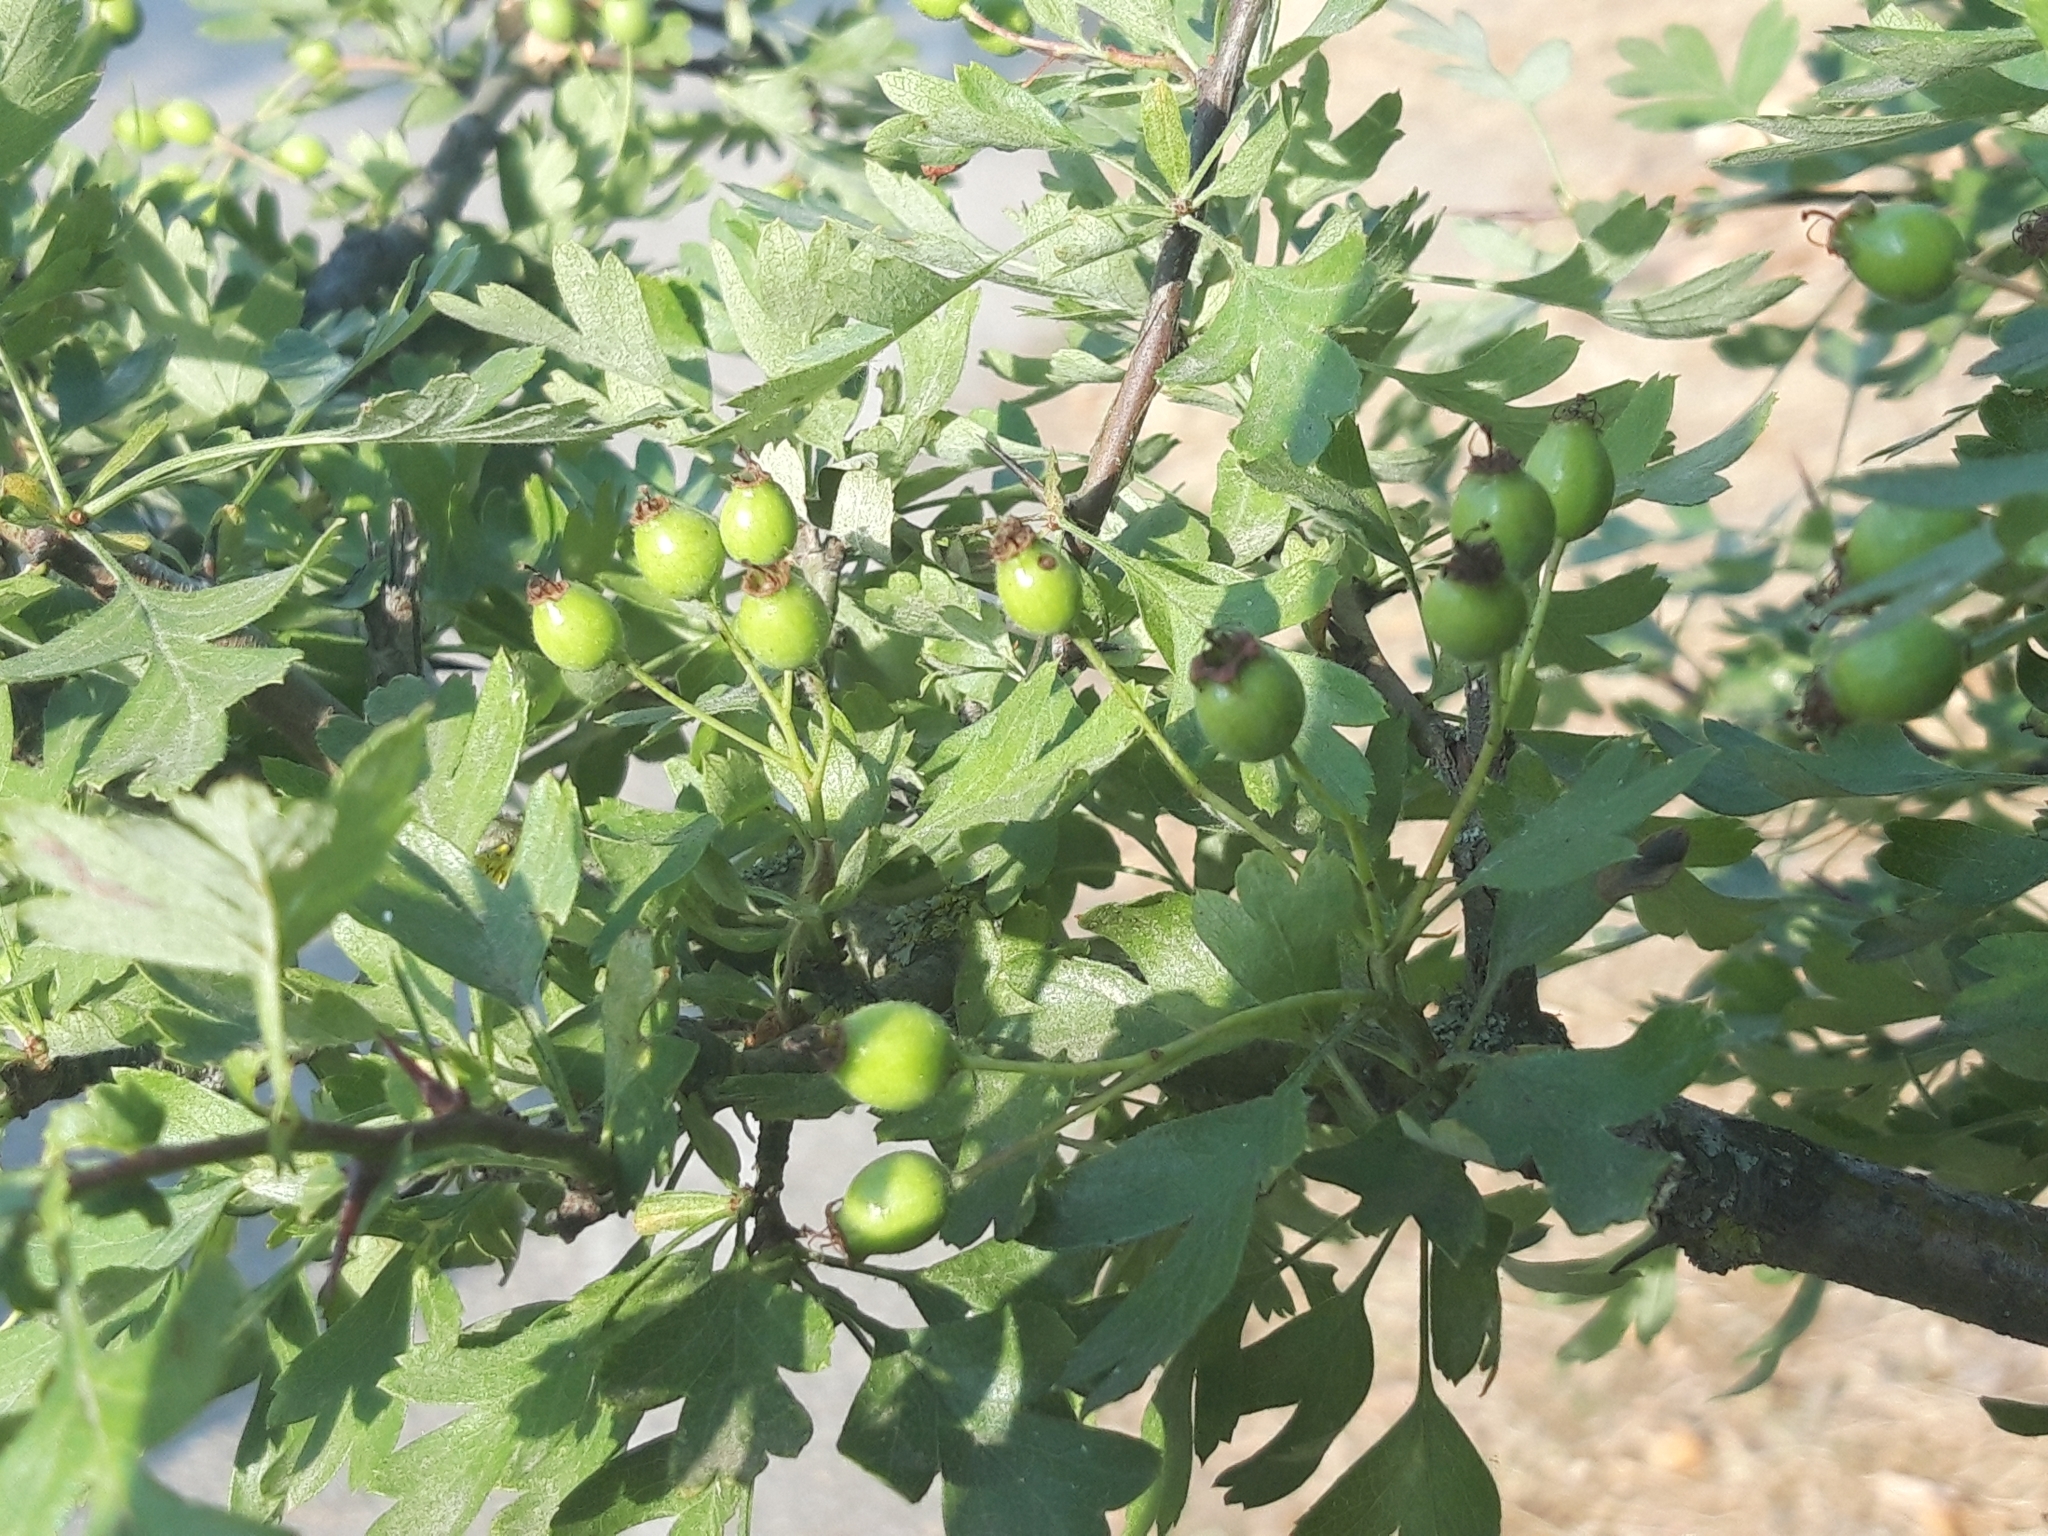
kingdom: Plantae
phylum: Tracheophyta
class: Magnoliopsida
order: Rosales
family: Rosaceae
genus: Crataegus
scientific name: Crataegus monogyna
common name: Hawthorn
